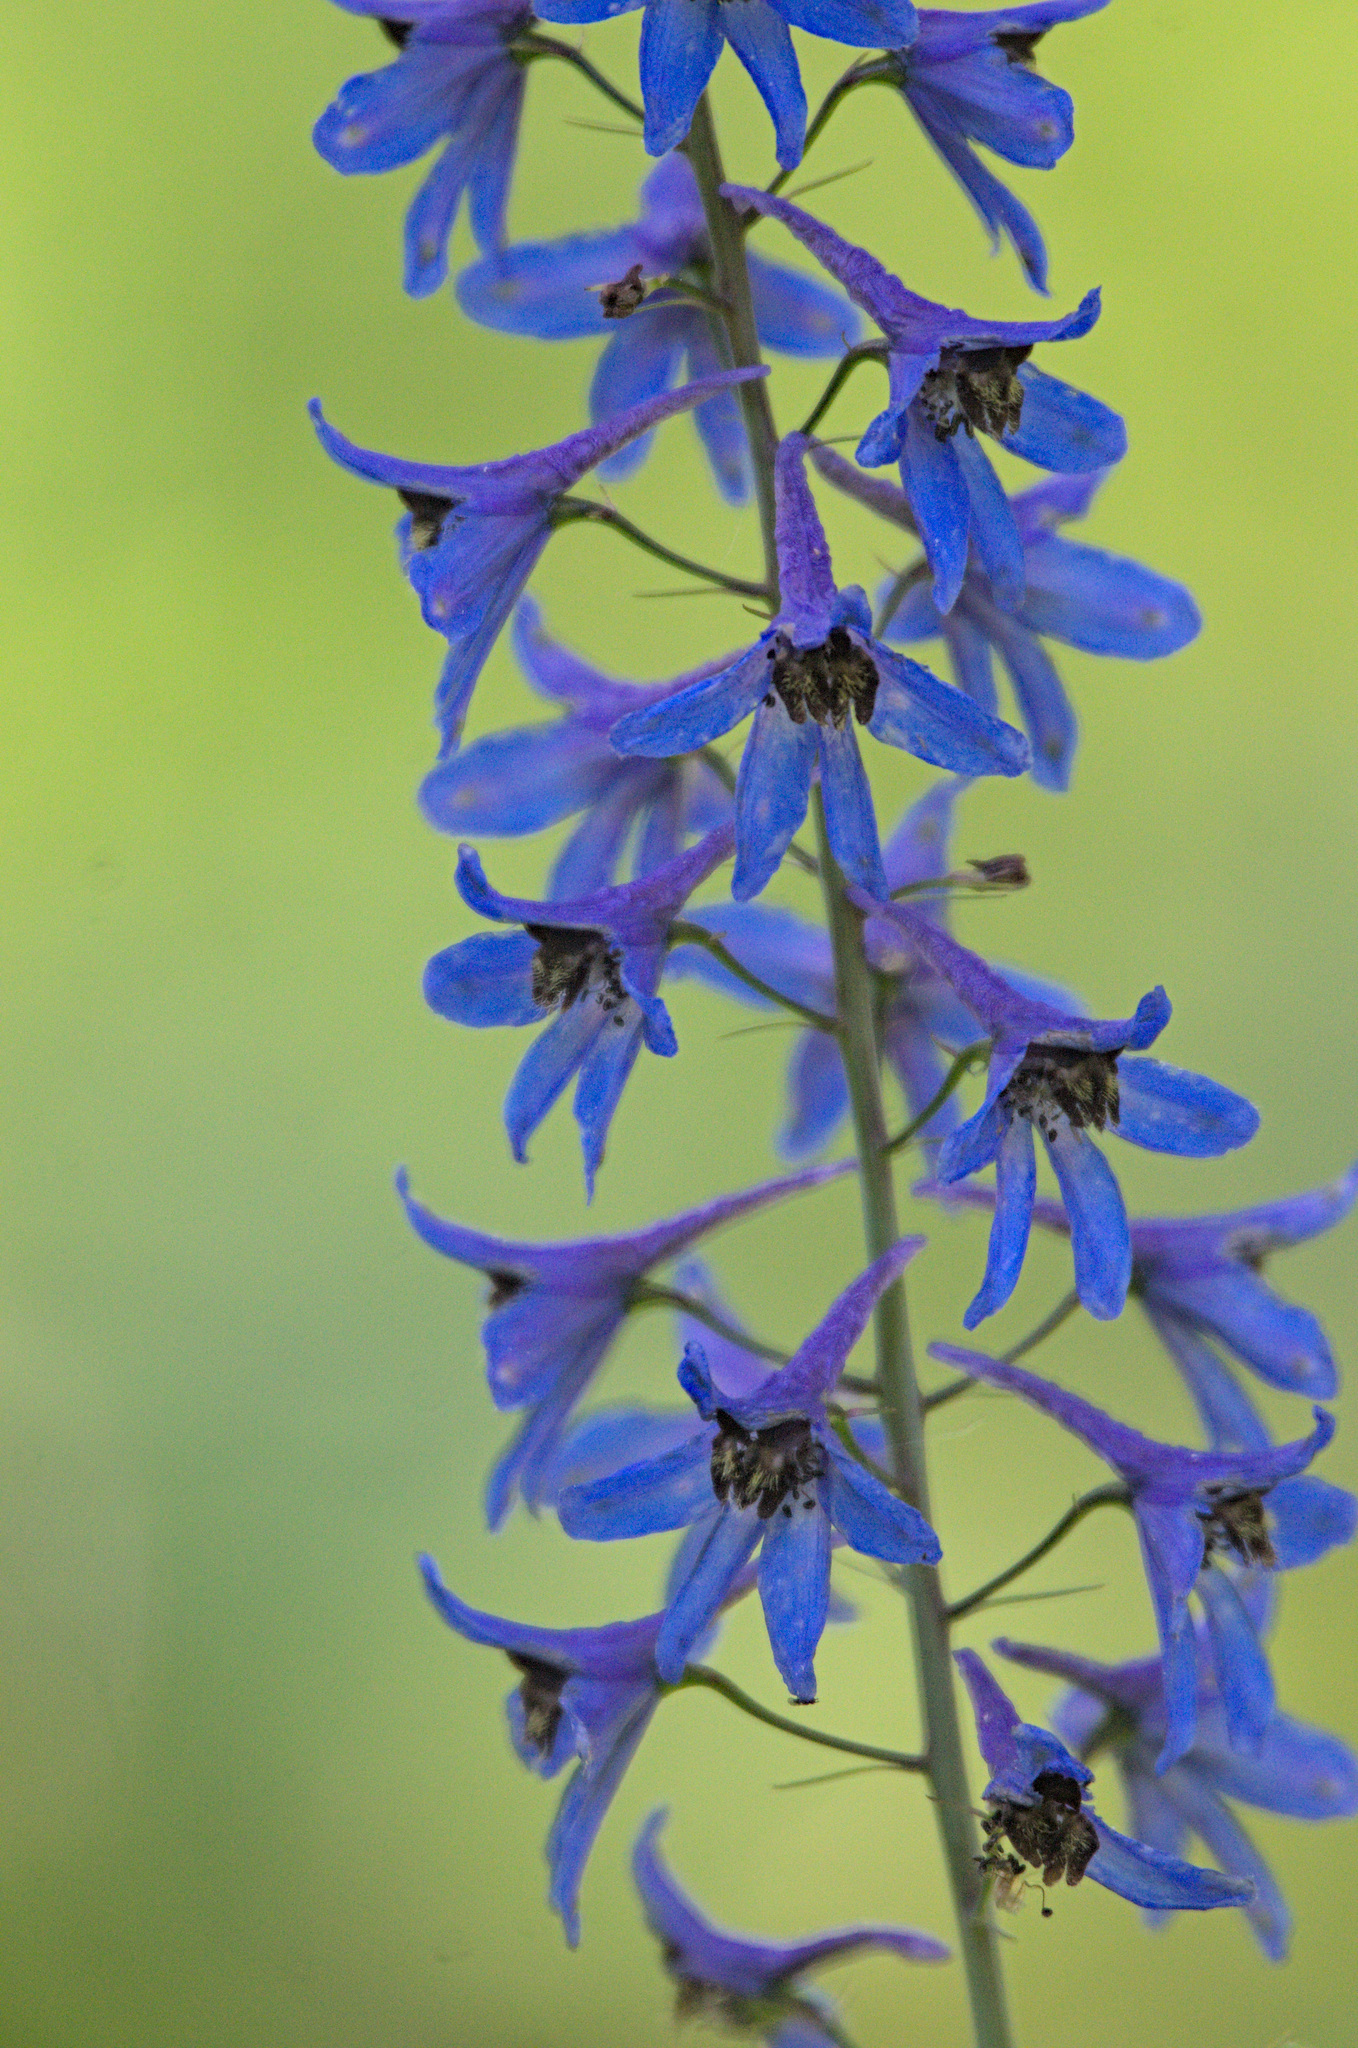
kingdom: Plantae
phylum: Tracheophyta
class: Magnoliopsida
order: Ranunculales
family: Ranunculaceae
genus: Delphinium
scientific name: Delphinium elatum
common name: Candle larkspur
